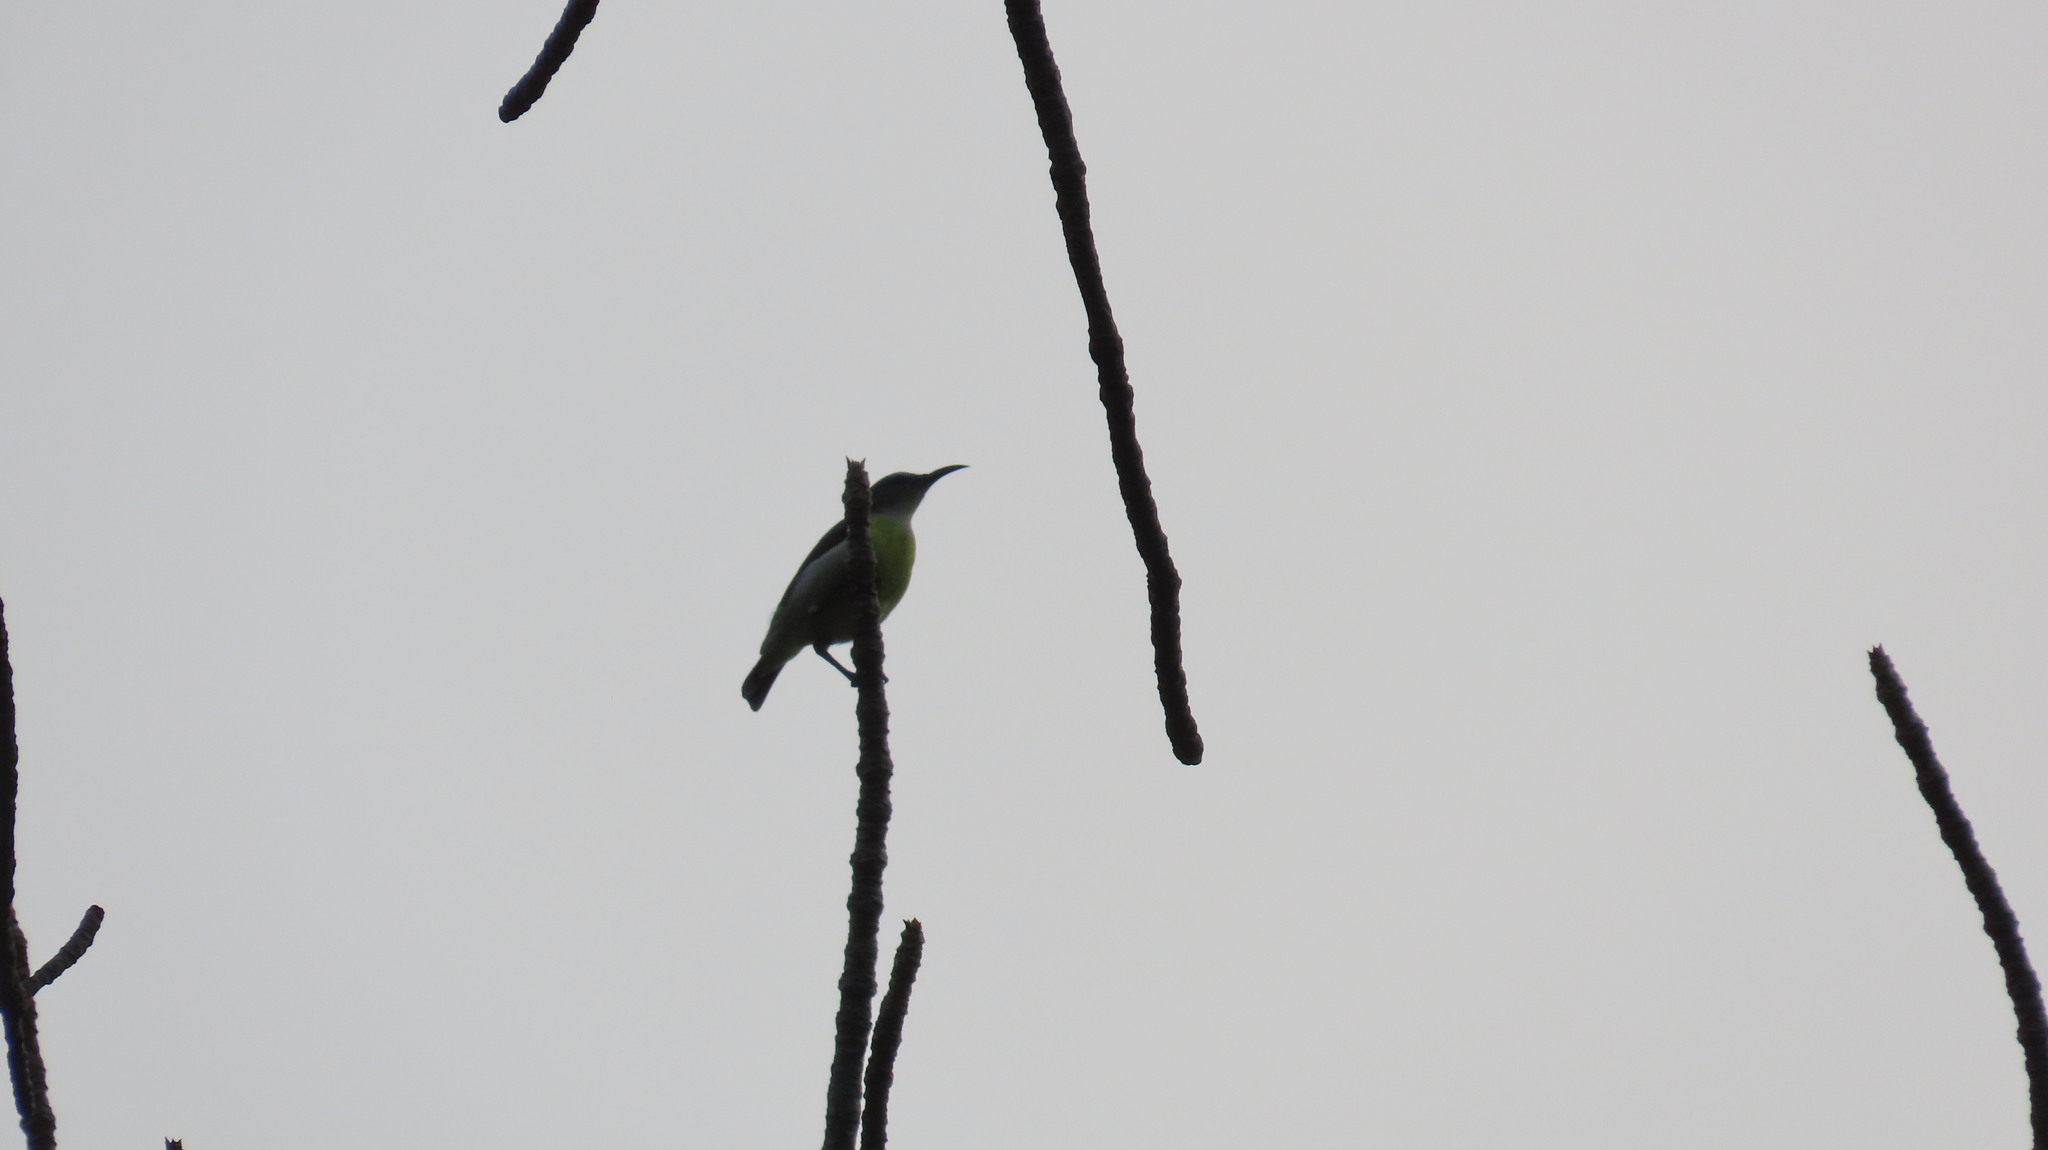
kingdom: Animalia
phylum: Chordata
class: Aves
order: Passeriformes
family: Nectariniidae
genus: Leptocoma
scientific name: Leptocoma zeylonica
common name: Purple-rumped sunbird
